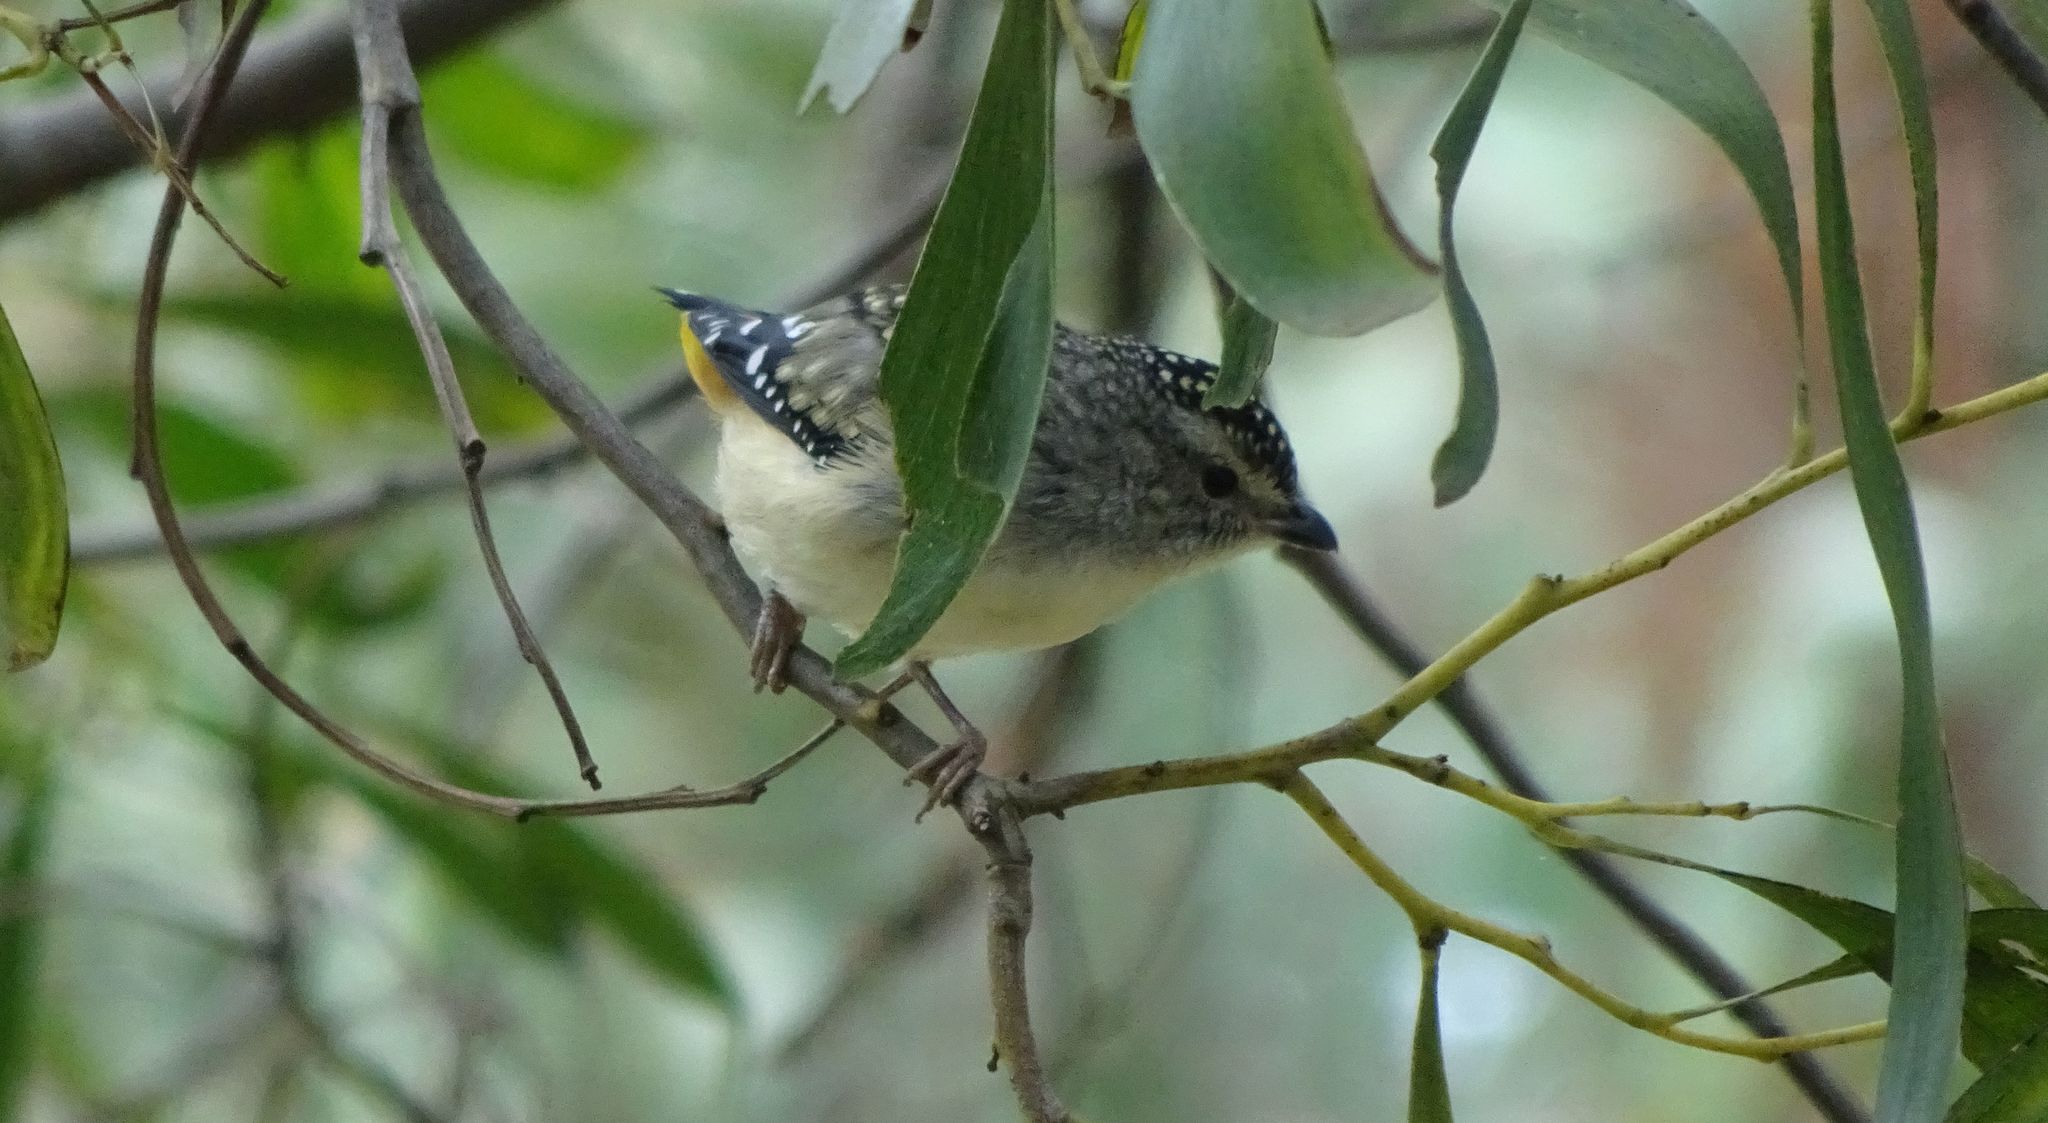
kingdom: Animalia
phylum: Chordata
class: Aves
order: Passeriformes
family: Pardalotidae
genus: Pardalotus
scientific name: Pardalotus punctatus
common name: Spotted pardalote
